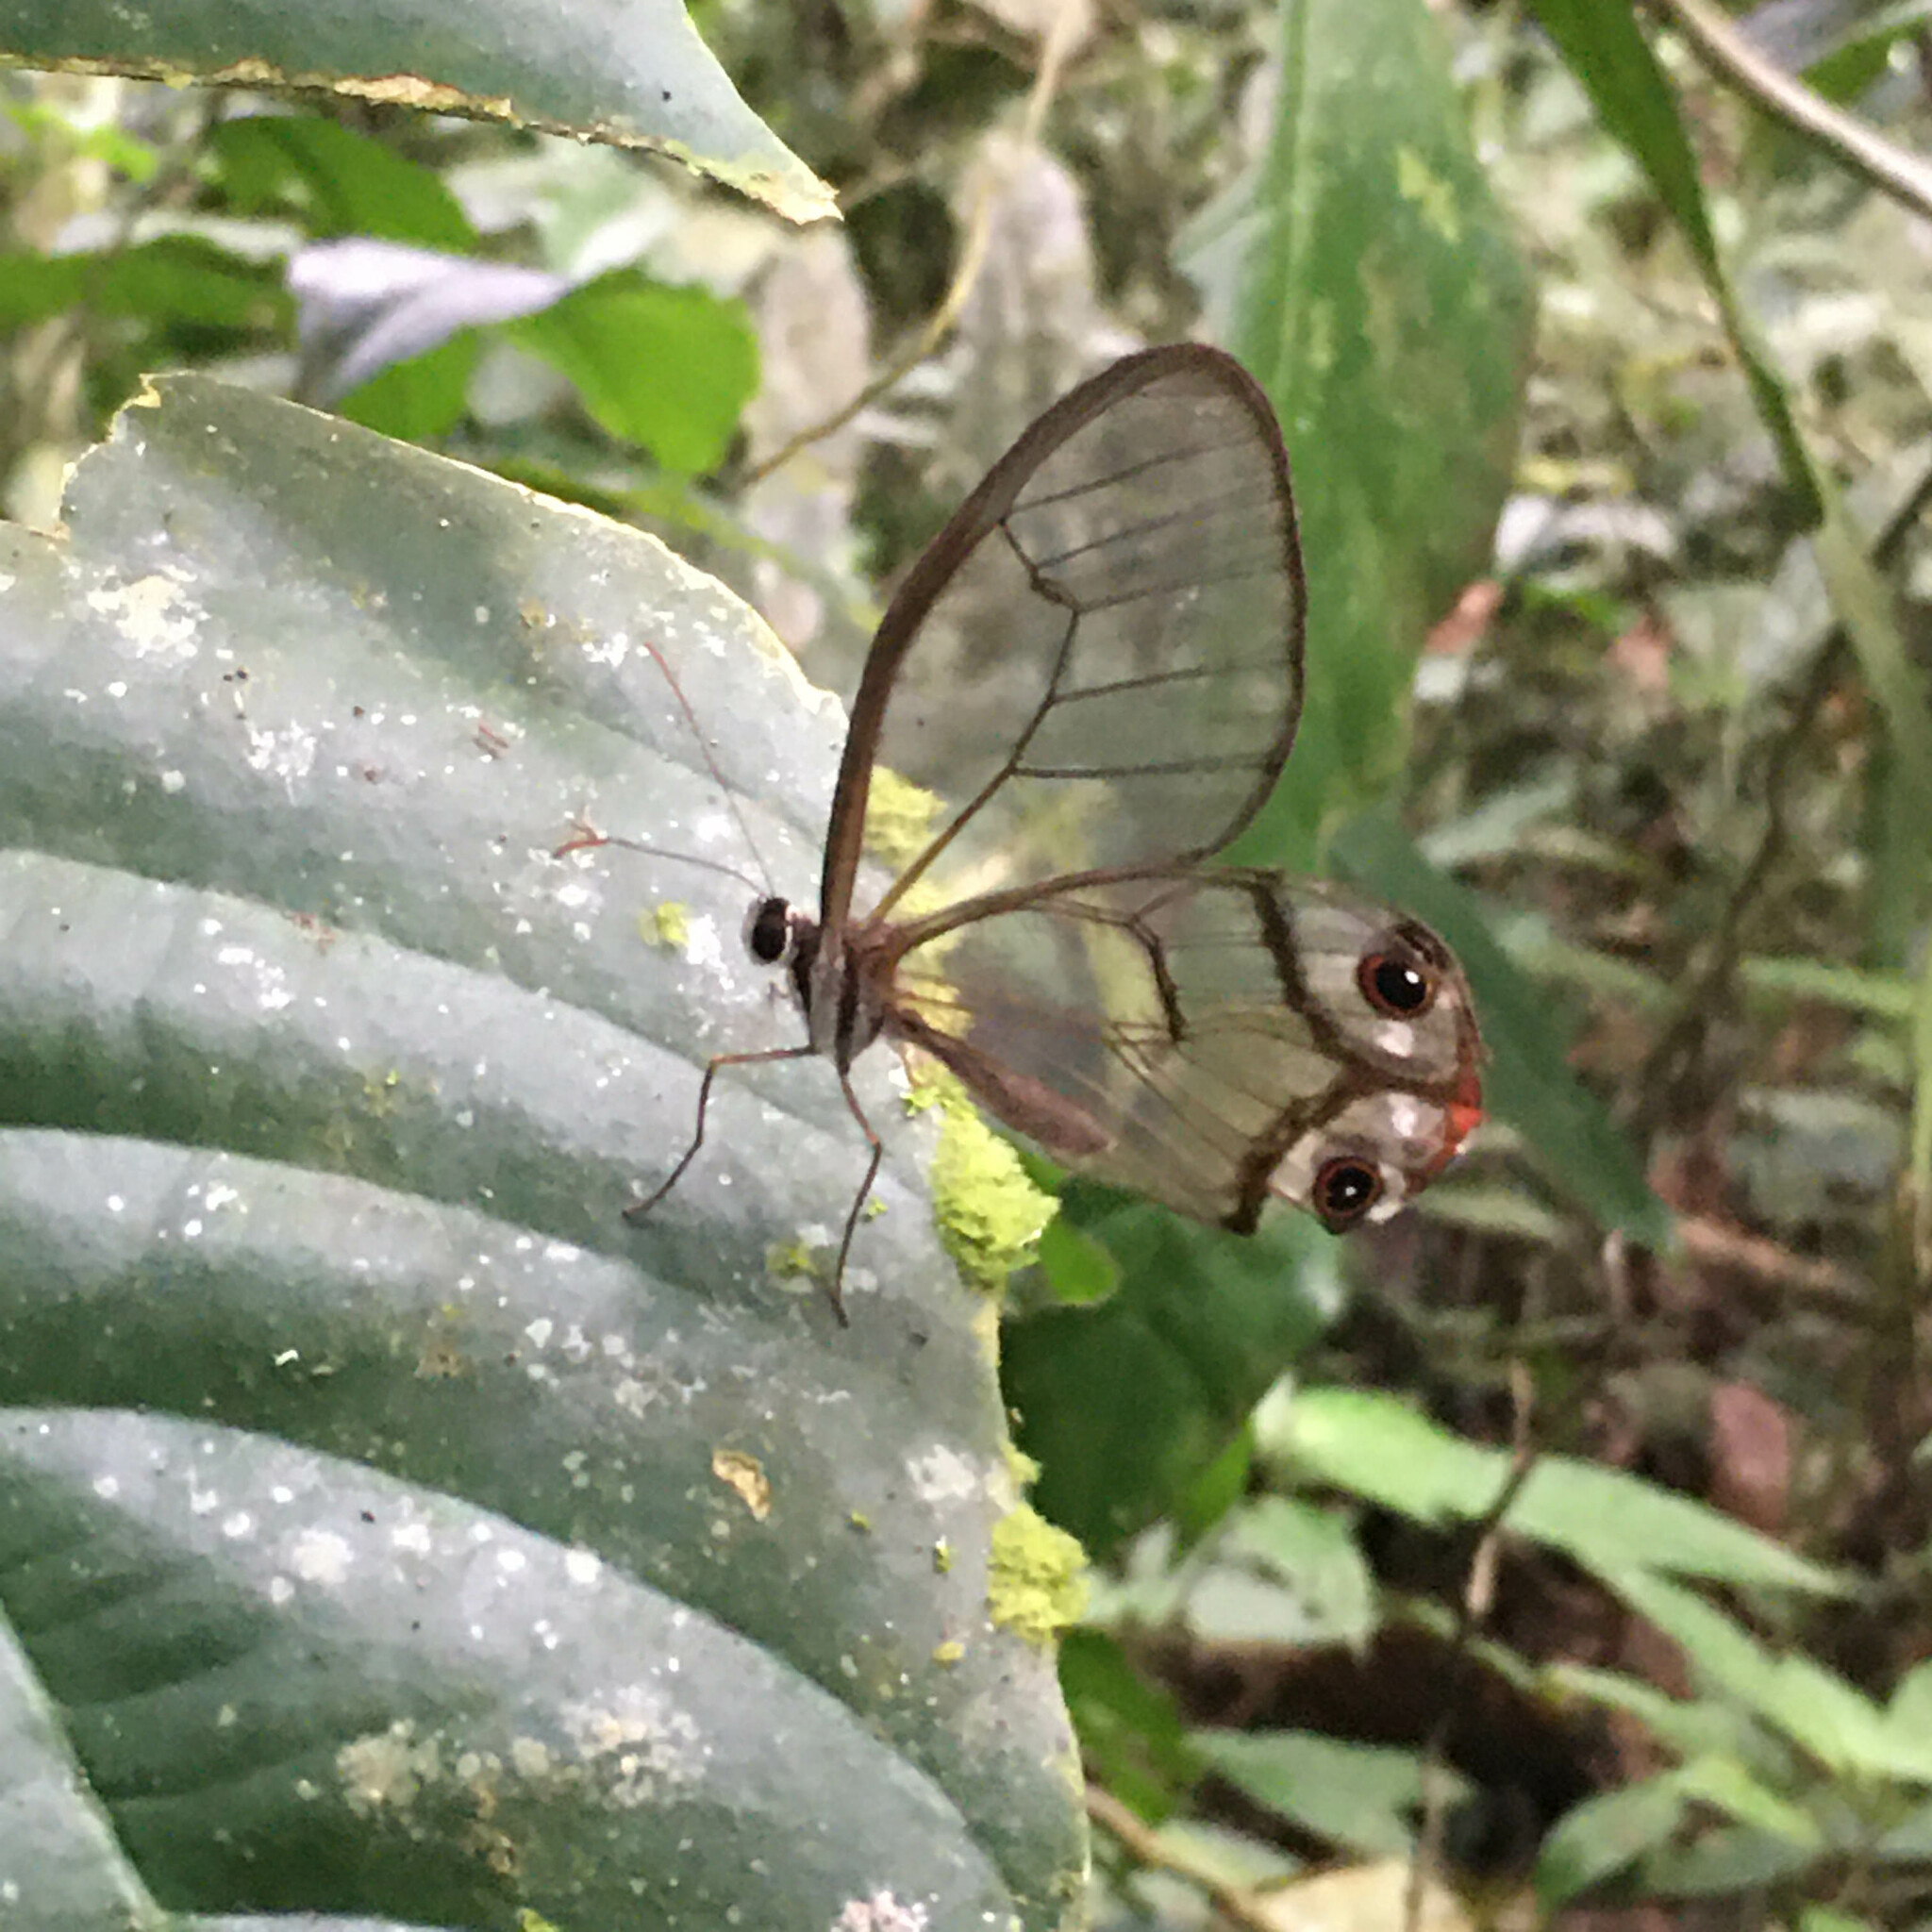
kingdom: Animalia
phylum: Arthropoda
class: Insecta
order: Lepidoptera
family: Nymphalidae
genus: Haetera
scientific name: Haetera piera
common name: Amber phantom
